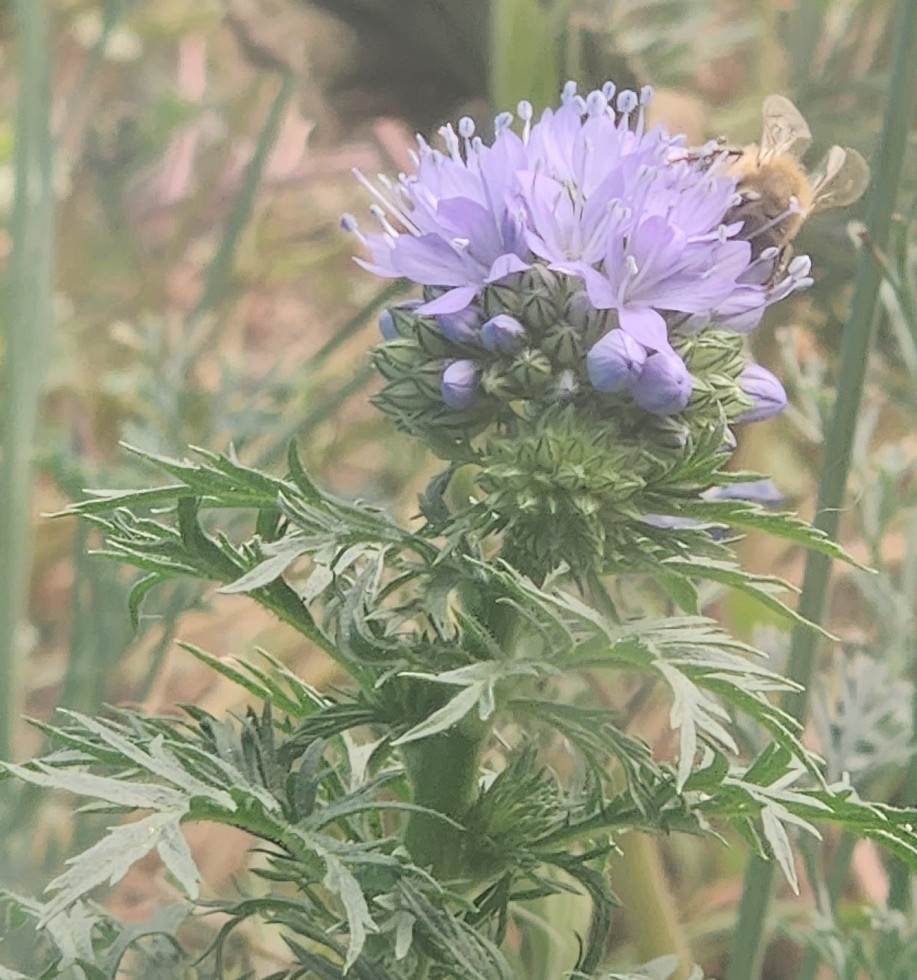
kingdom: Animalia
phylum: Arthropoda
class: Insecta
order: Hymenoptera
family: Apidae
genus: Apis
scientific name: Apis mellifera
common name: Honey bee
